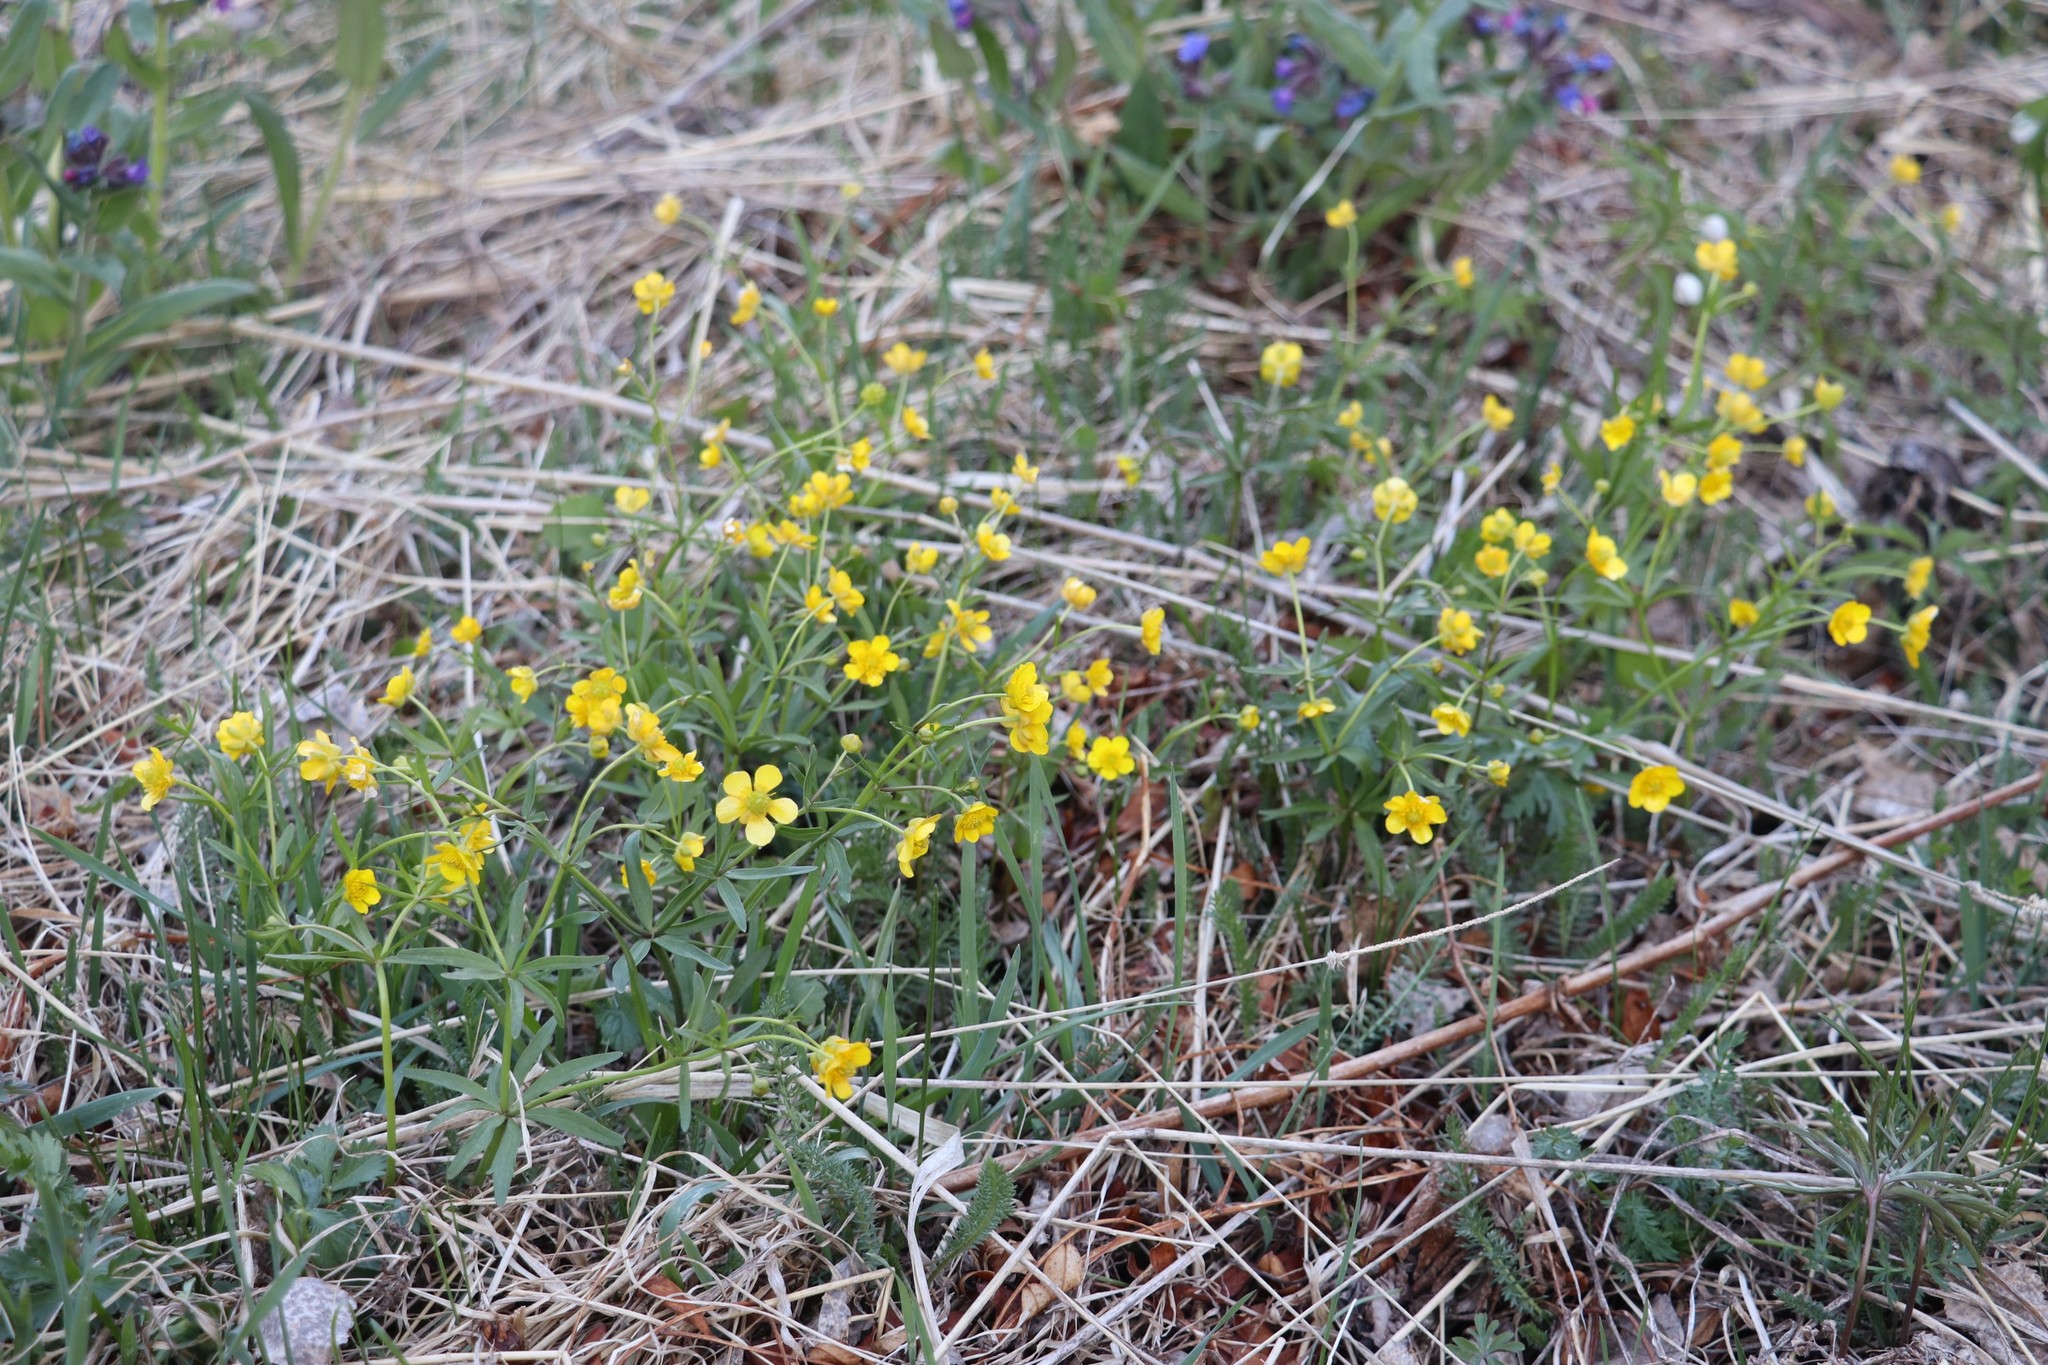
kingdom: Plantae
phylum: Tracheophyta
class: Magnoliopsida
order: Ranunculales
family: Ranunculaceae
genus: Ranunculus
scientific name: Ranunculus monophyllus
